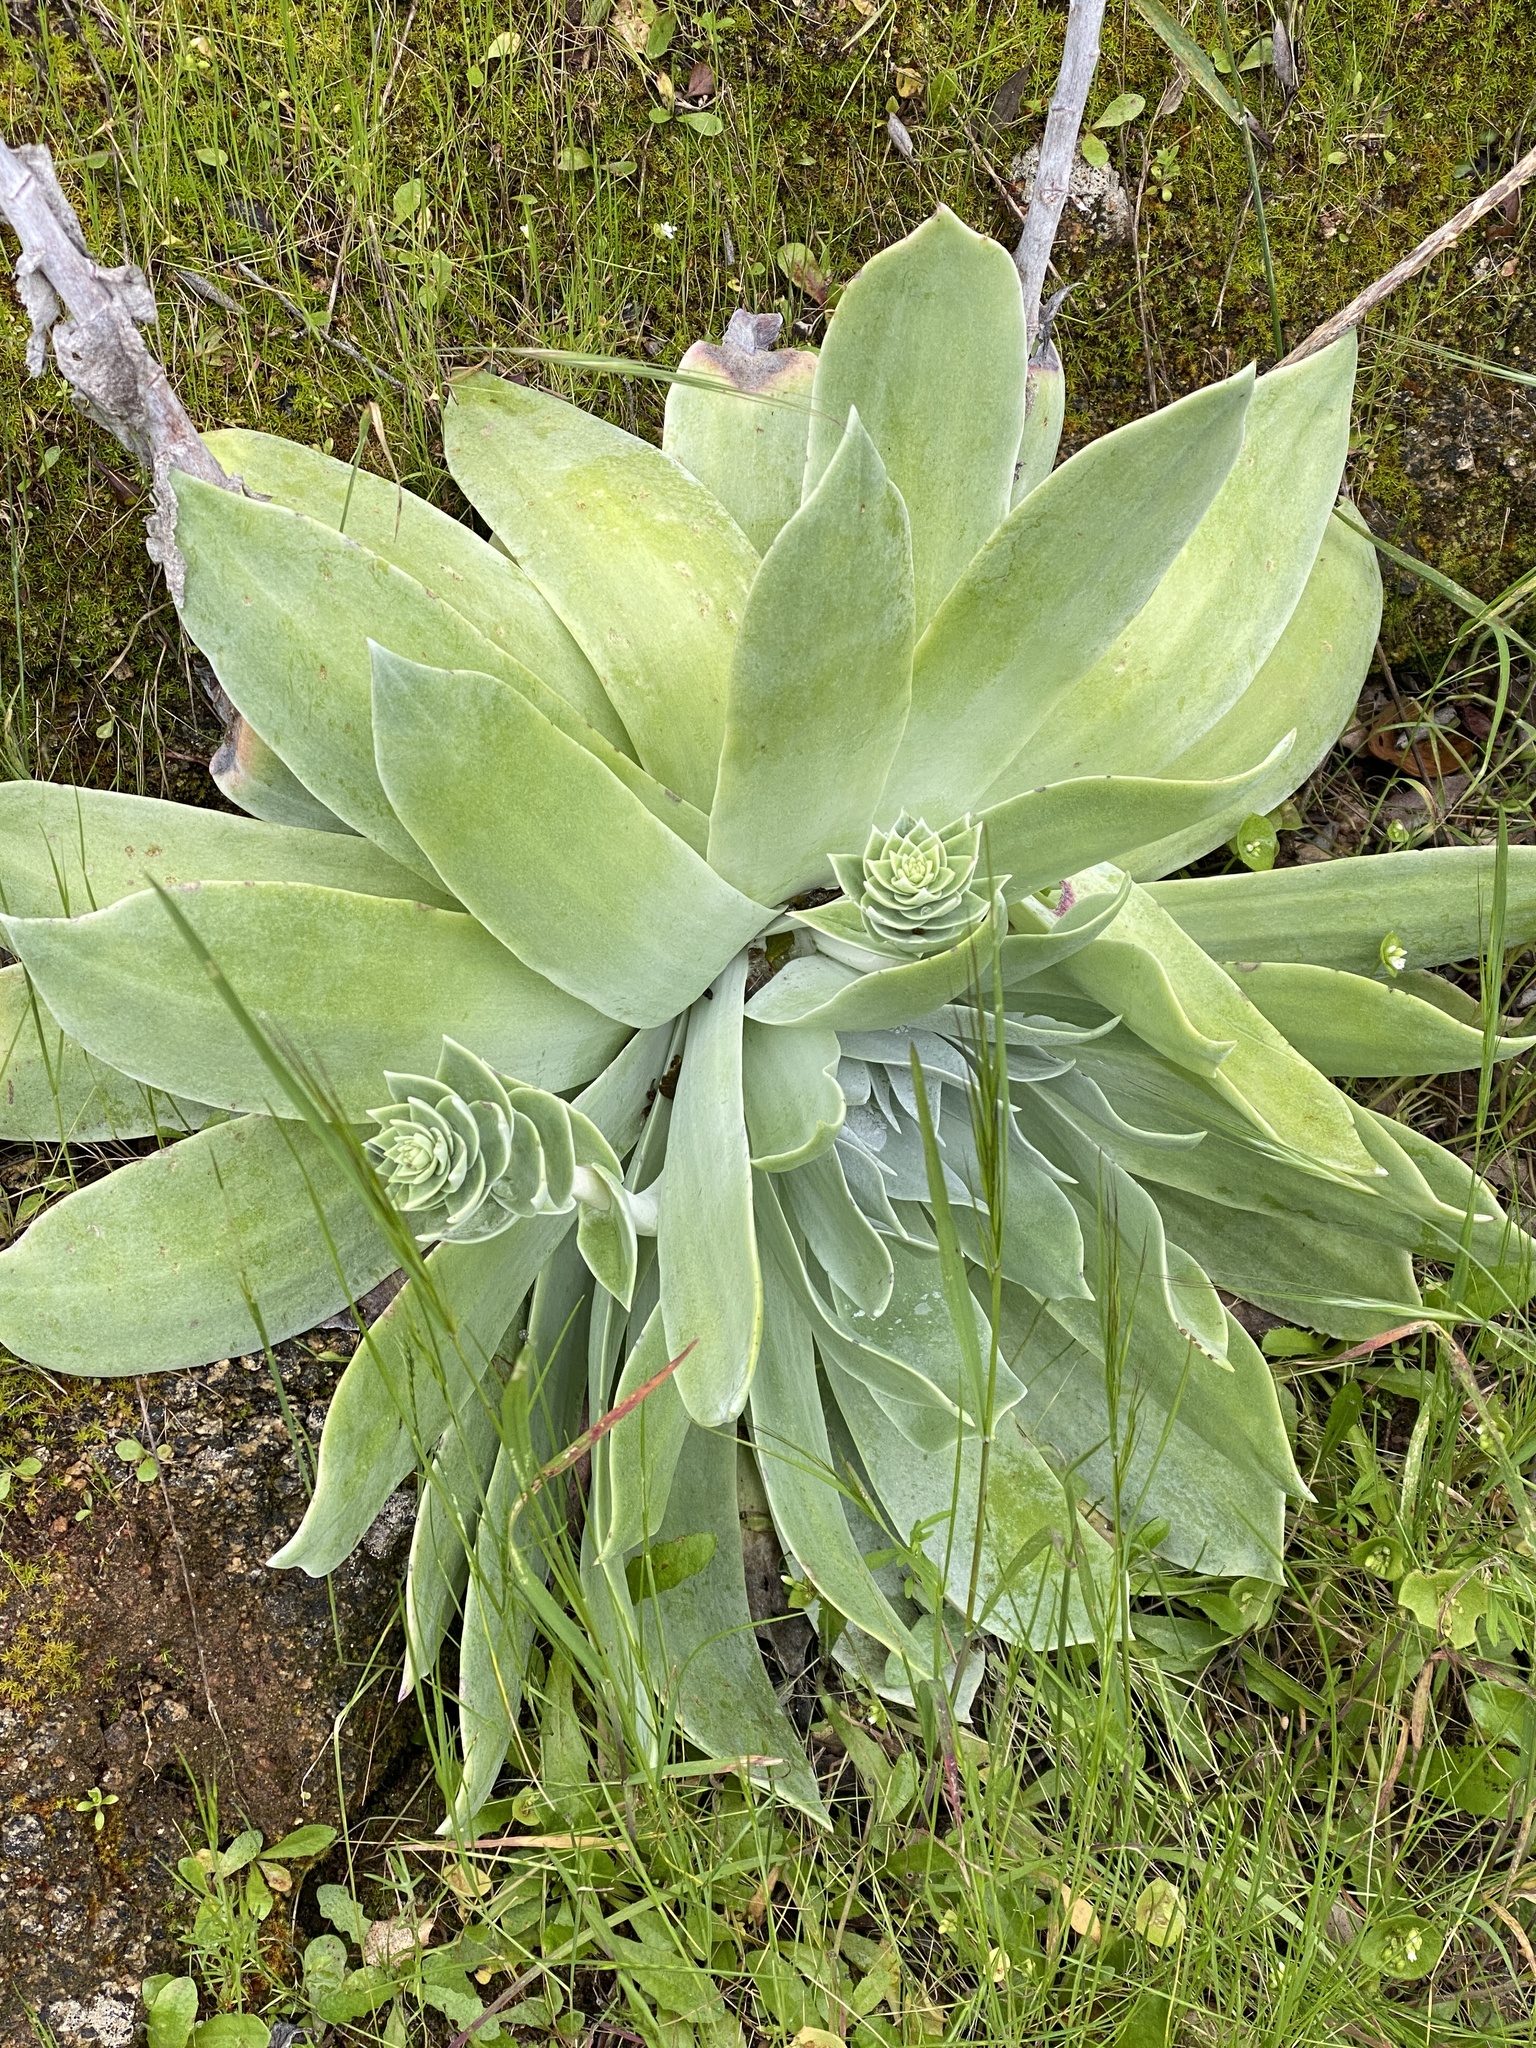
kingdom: Plantae
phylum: Tracheophyta
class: Magnoliopsida
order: Saxifragales
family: Crassulaceae
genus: Dudleya
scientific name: Dudleya pulverulenta
